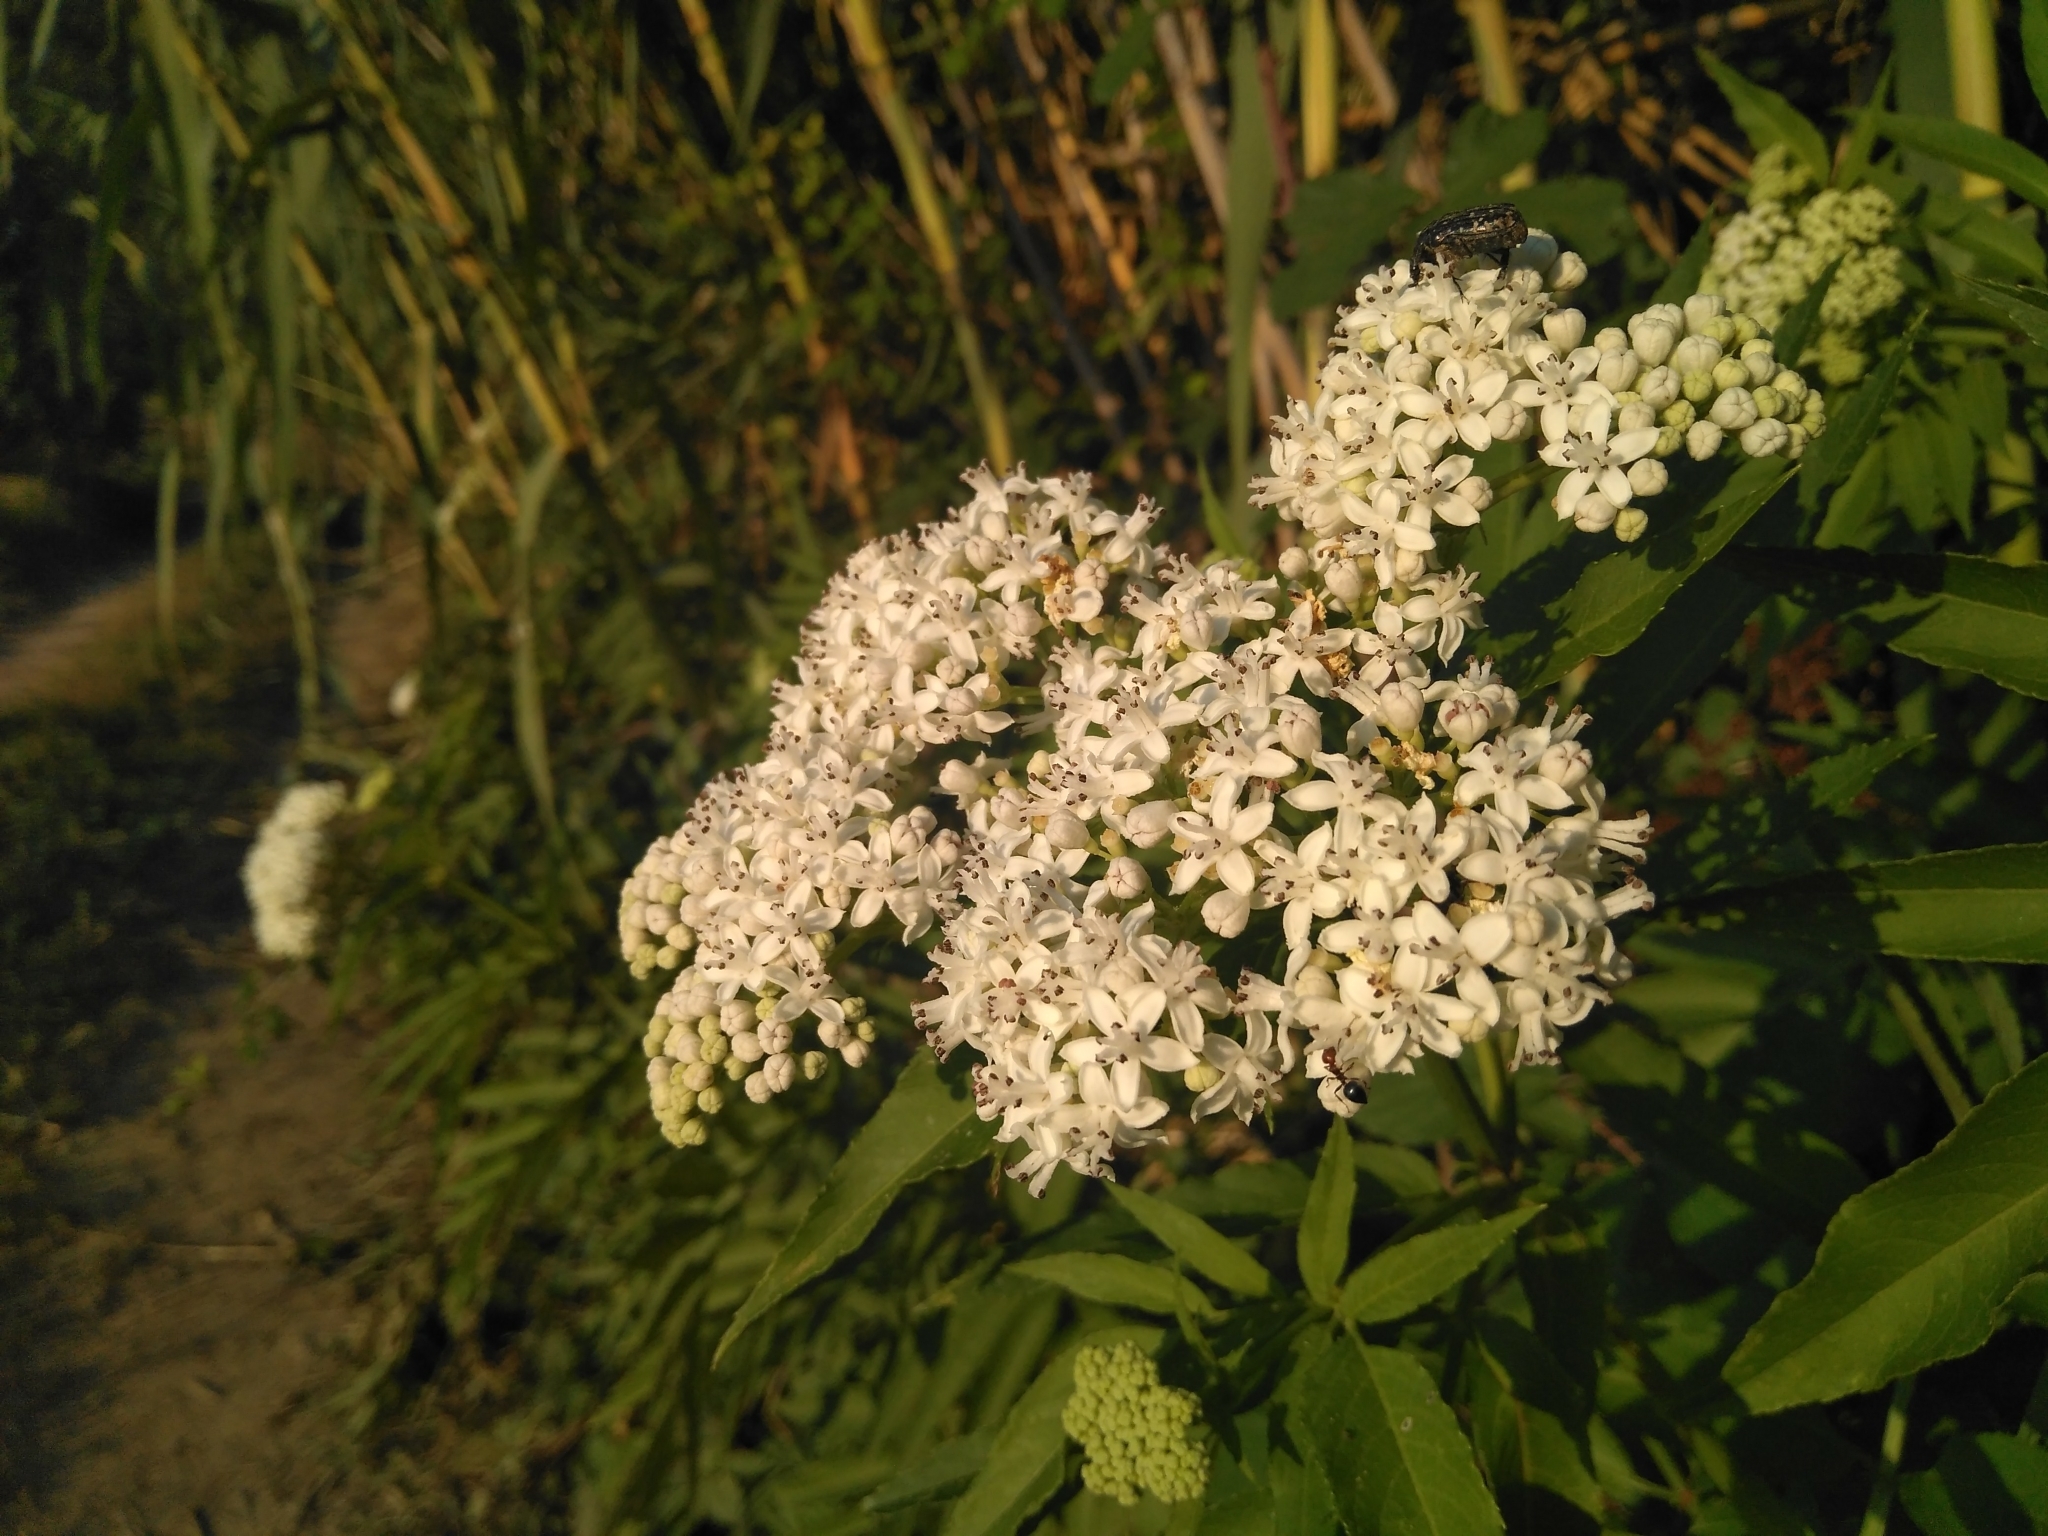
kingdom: Plantae
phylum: Tracheophyta
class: Magnoliopsida
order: Dipsacales
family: Viburnaceae
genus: Sambucus
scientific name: Sambucus ebulus
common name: Dwarf elder
